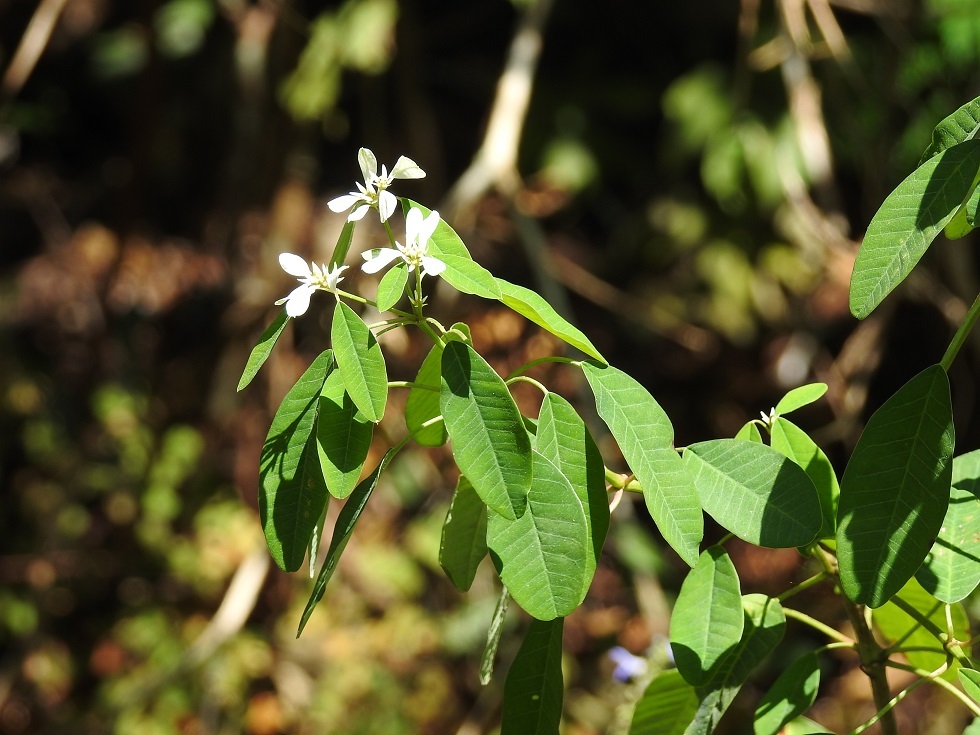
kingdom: Plantae
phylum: Tracheophyta
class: Magnoliopsida
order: Malpighiales
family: Euphorbiaceae
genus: Euphorbia
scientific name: Euphorbia leucocephala
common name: Pascuita
